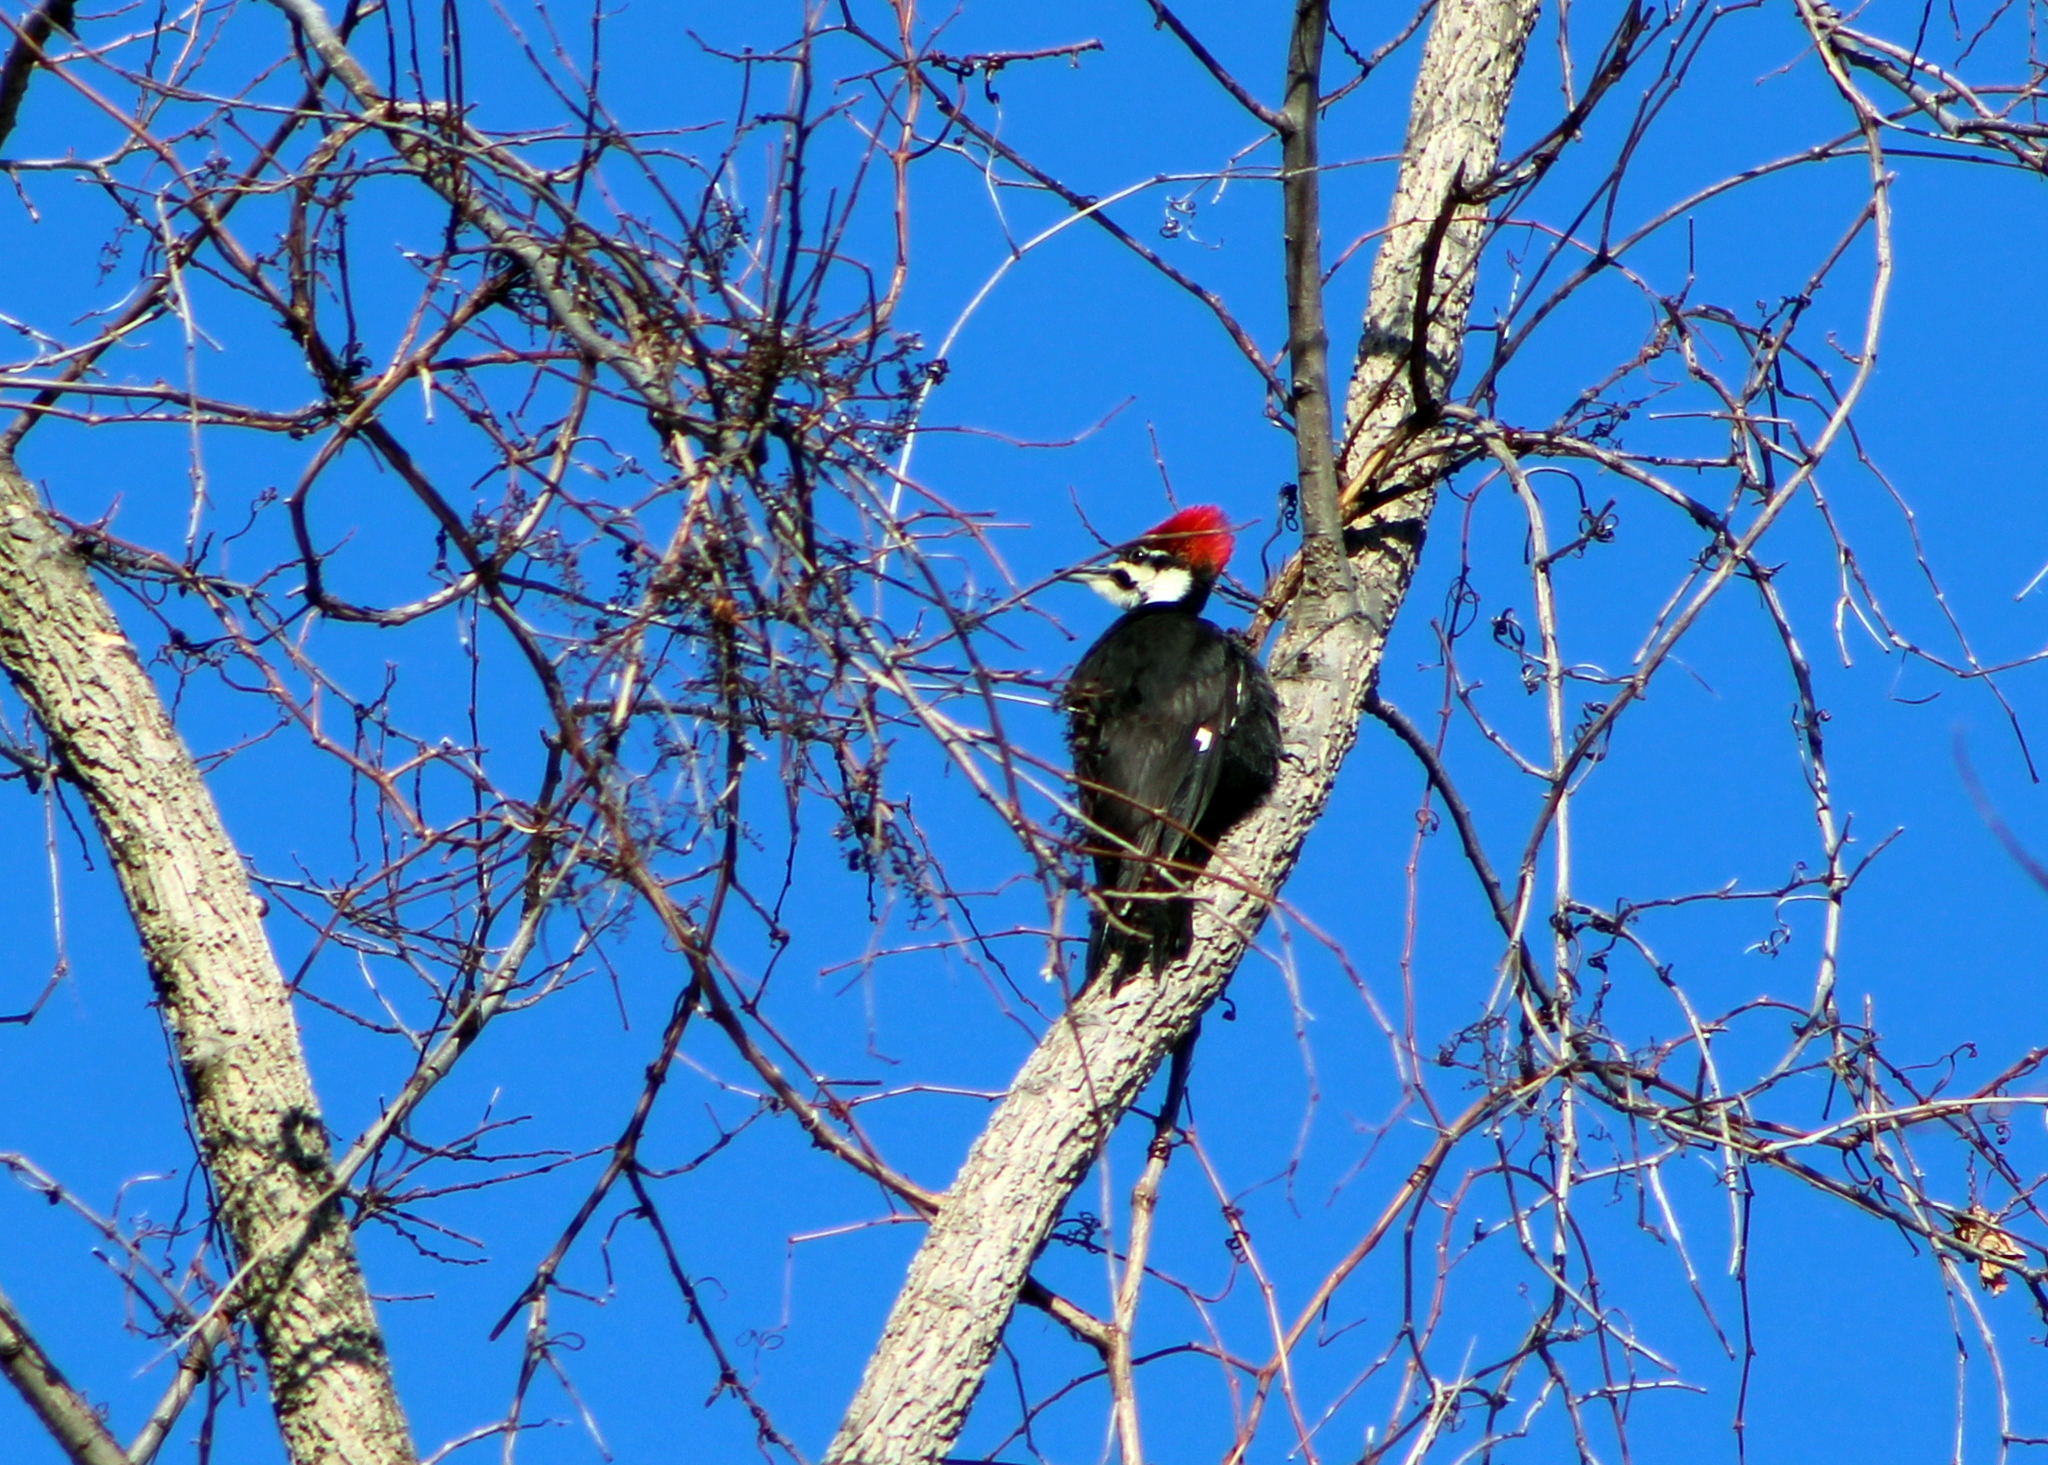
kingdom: Animalia
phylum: Chordata
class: Aves
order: Piciformes
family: Picidae
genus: Dryocopus
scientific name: Dryocopus pileatus
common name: Pileated woodpecker
